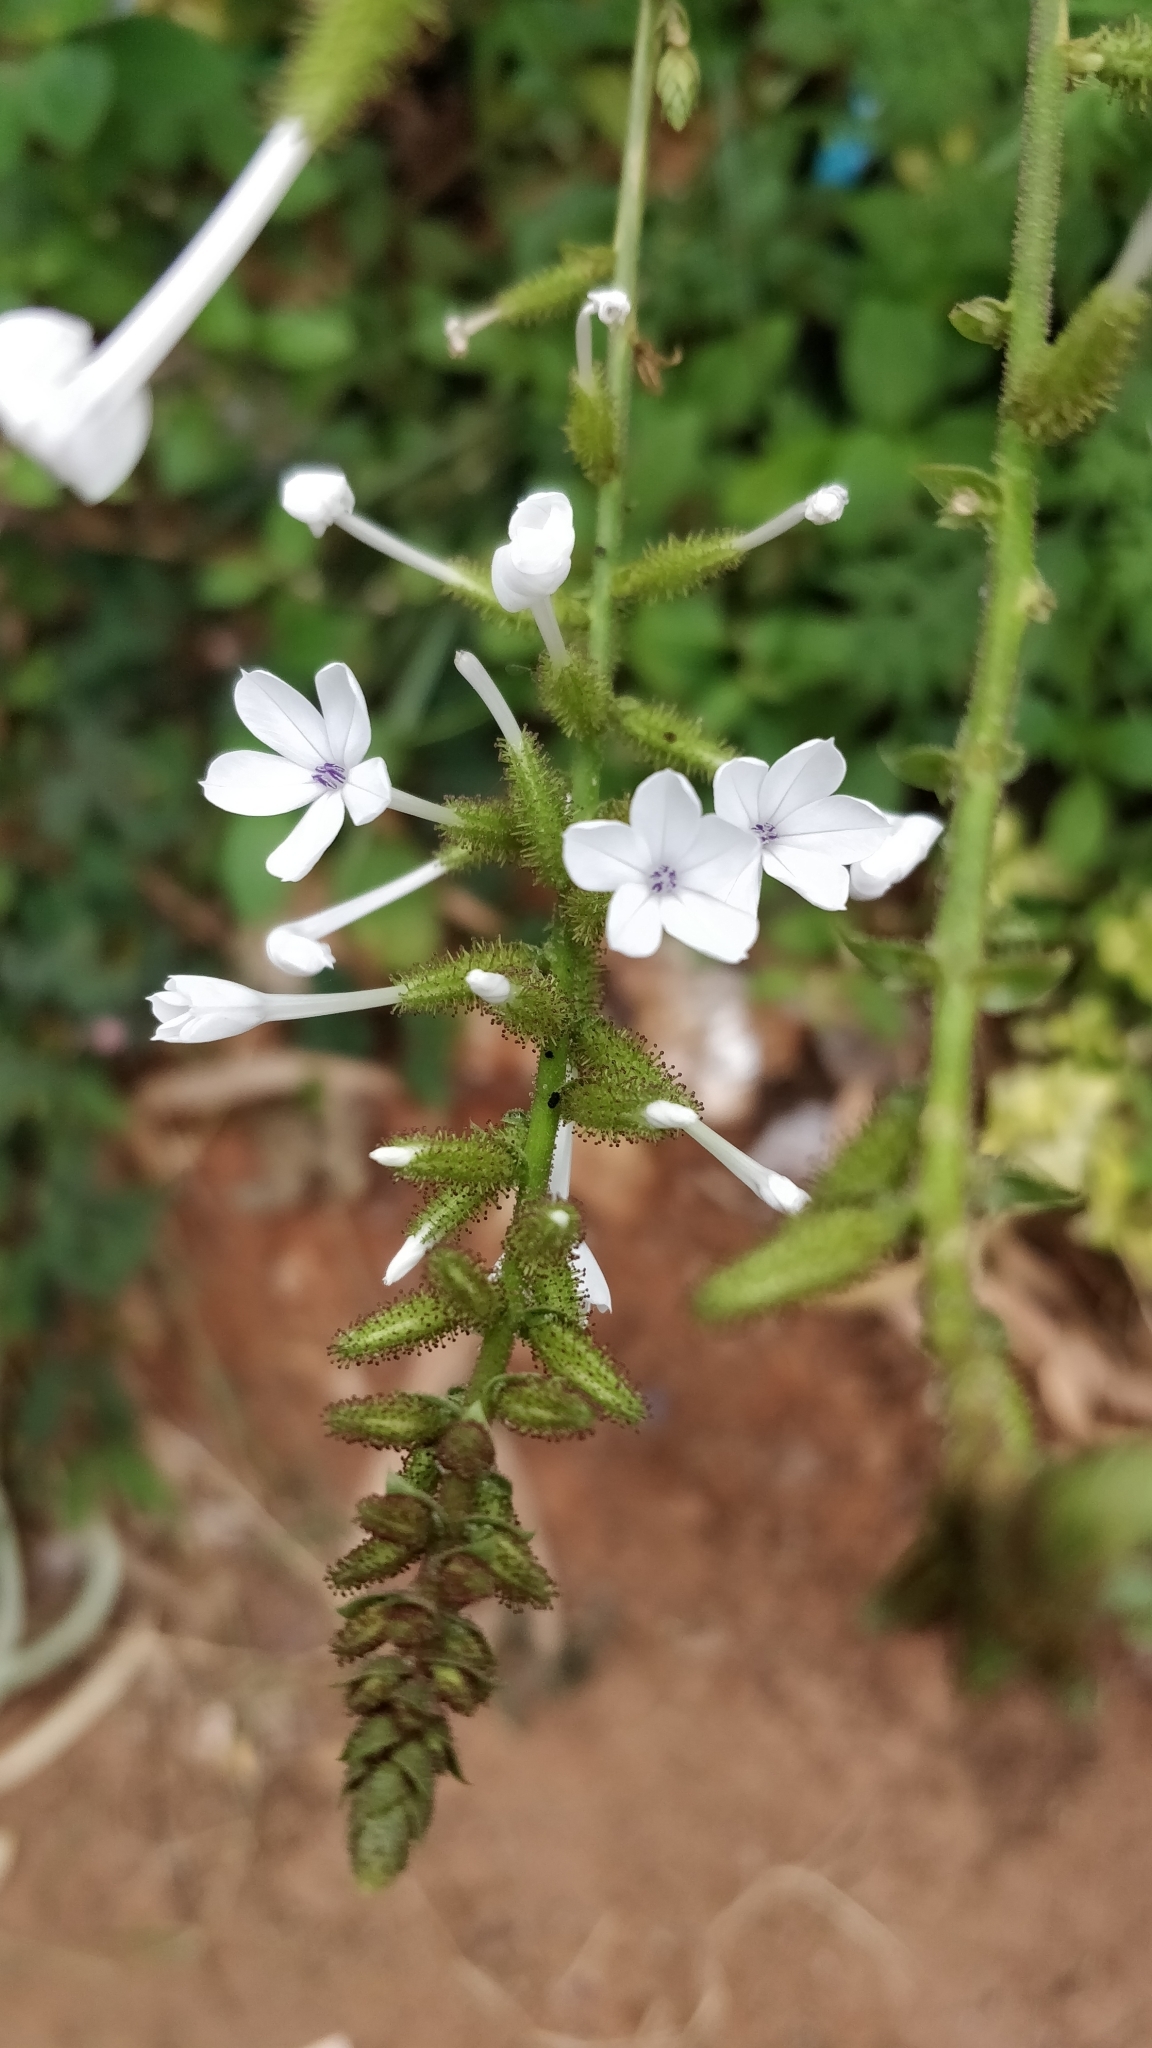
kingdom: Plantae
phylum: Tracheophyta
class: Magnoliopsida
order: Caryophyllales
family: Plumbaginaceae
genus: Plumbago
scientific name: Plumbago zeylanica
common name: Doctorbush
